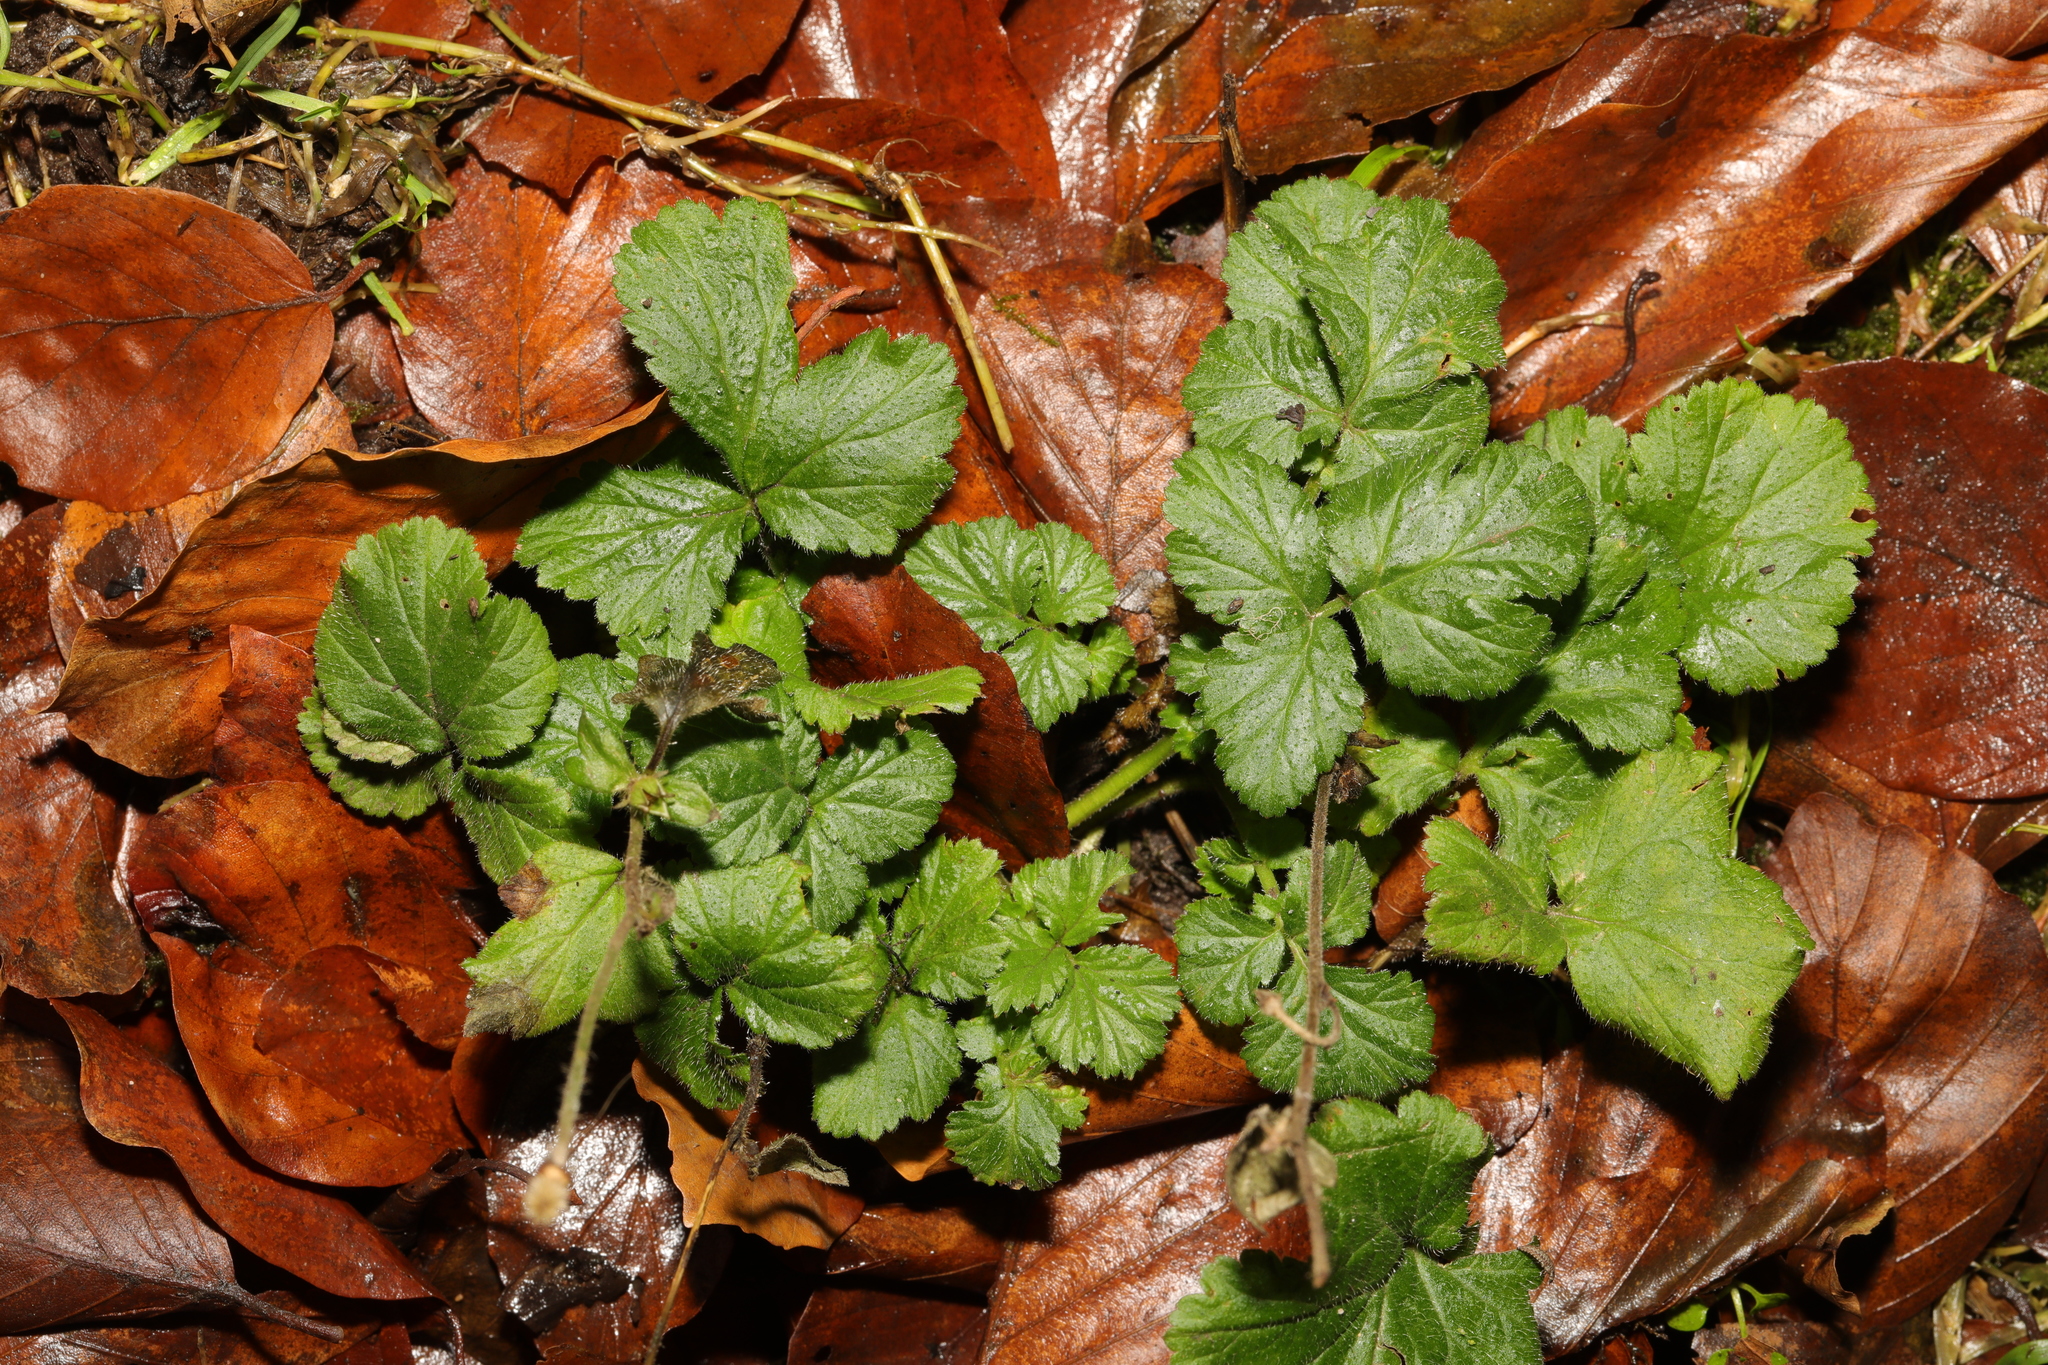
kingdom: Plantae
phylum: Tracheophyta
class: Magnoliopsida
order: Rosales
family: Rosaceae
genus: Geum
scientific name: Geum urbanum
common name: Wood avens
